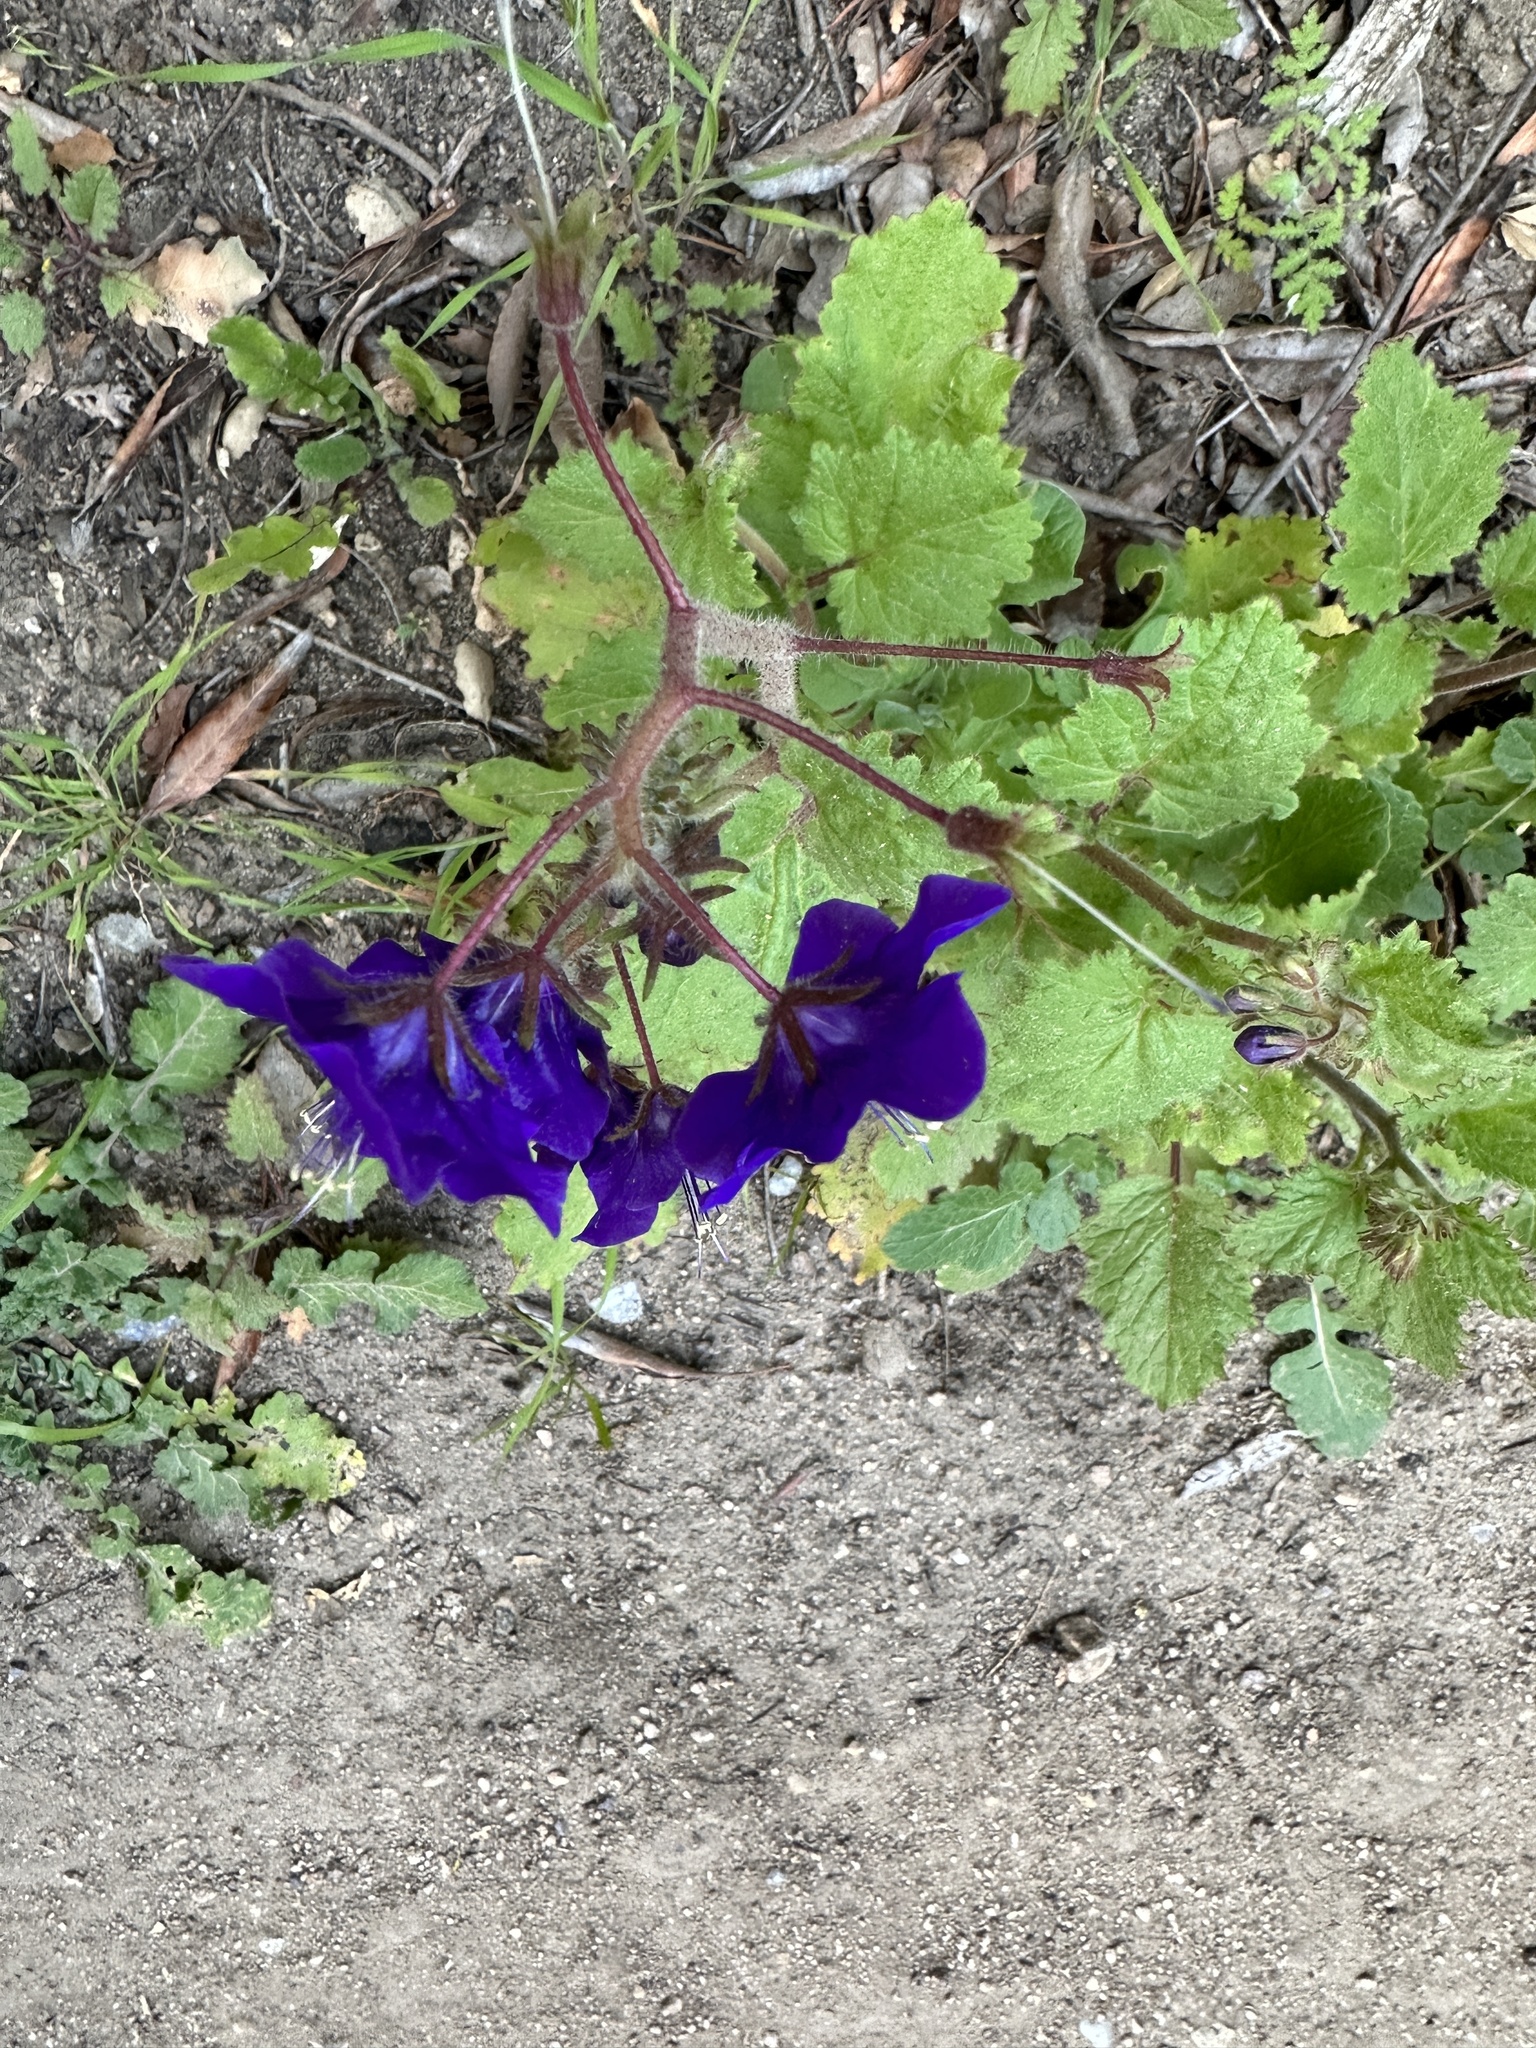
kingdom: Plantae
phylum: Tracheophyta
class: Magnoliopsida
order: Boraginales
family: Hydrophyllaceae
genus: Phacelia
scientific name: Phacelia parryi
